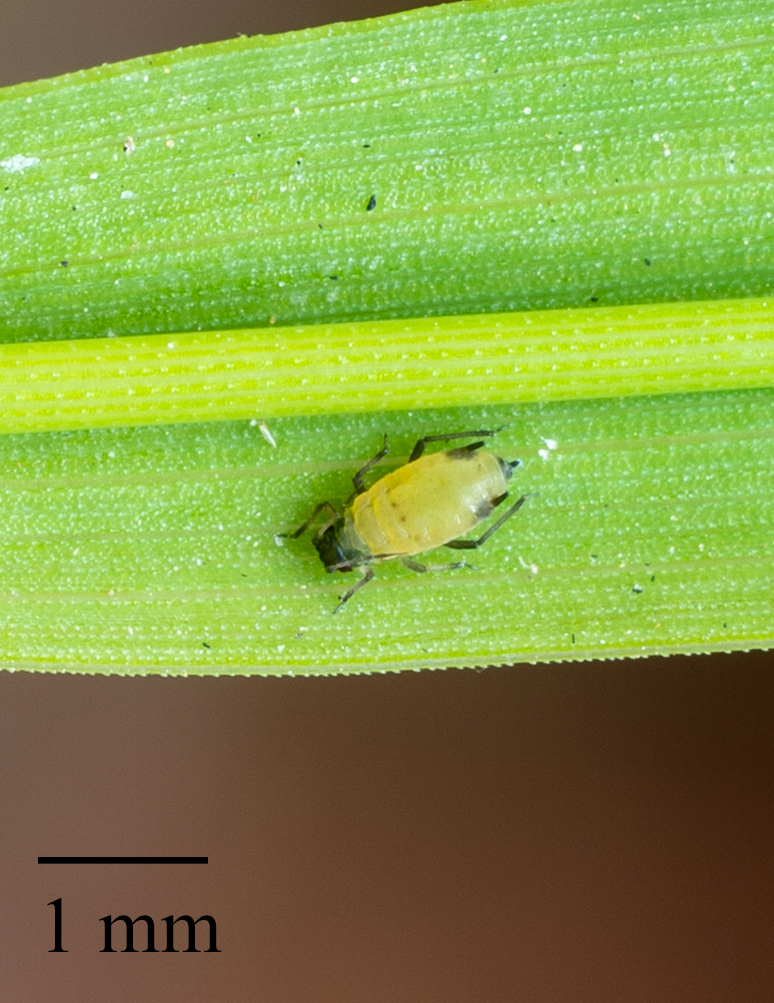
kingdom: Animalia
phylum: Arthropoda
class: Insecta
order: Hemiptera
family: Aphididae
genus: Rhopalosiphum
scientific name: Rhopalosiphum maidis
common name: Corn leaf aphid
